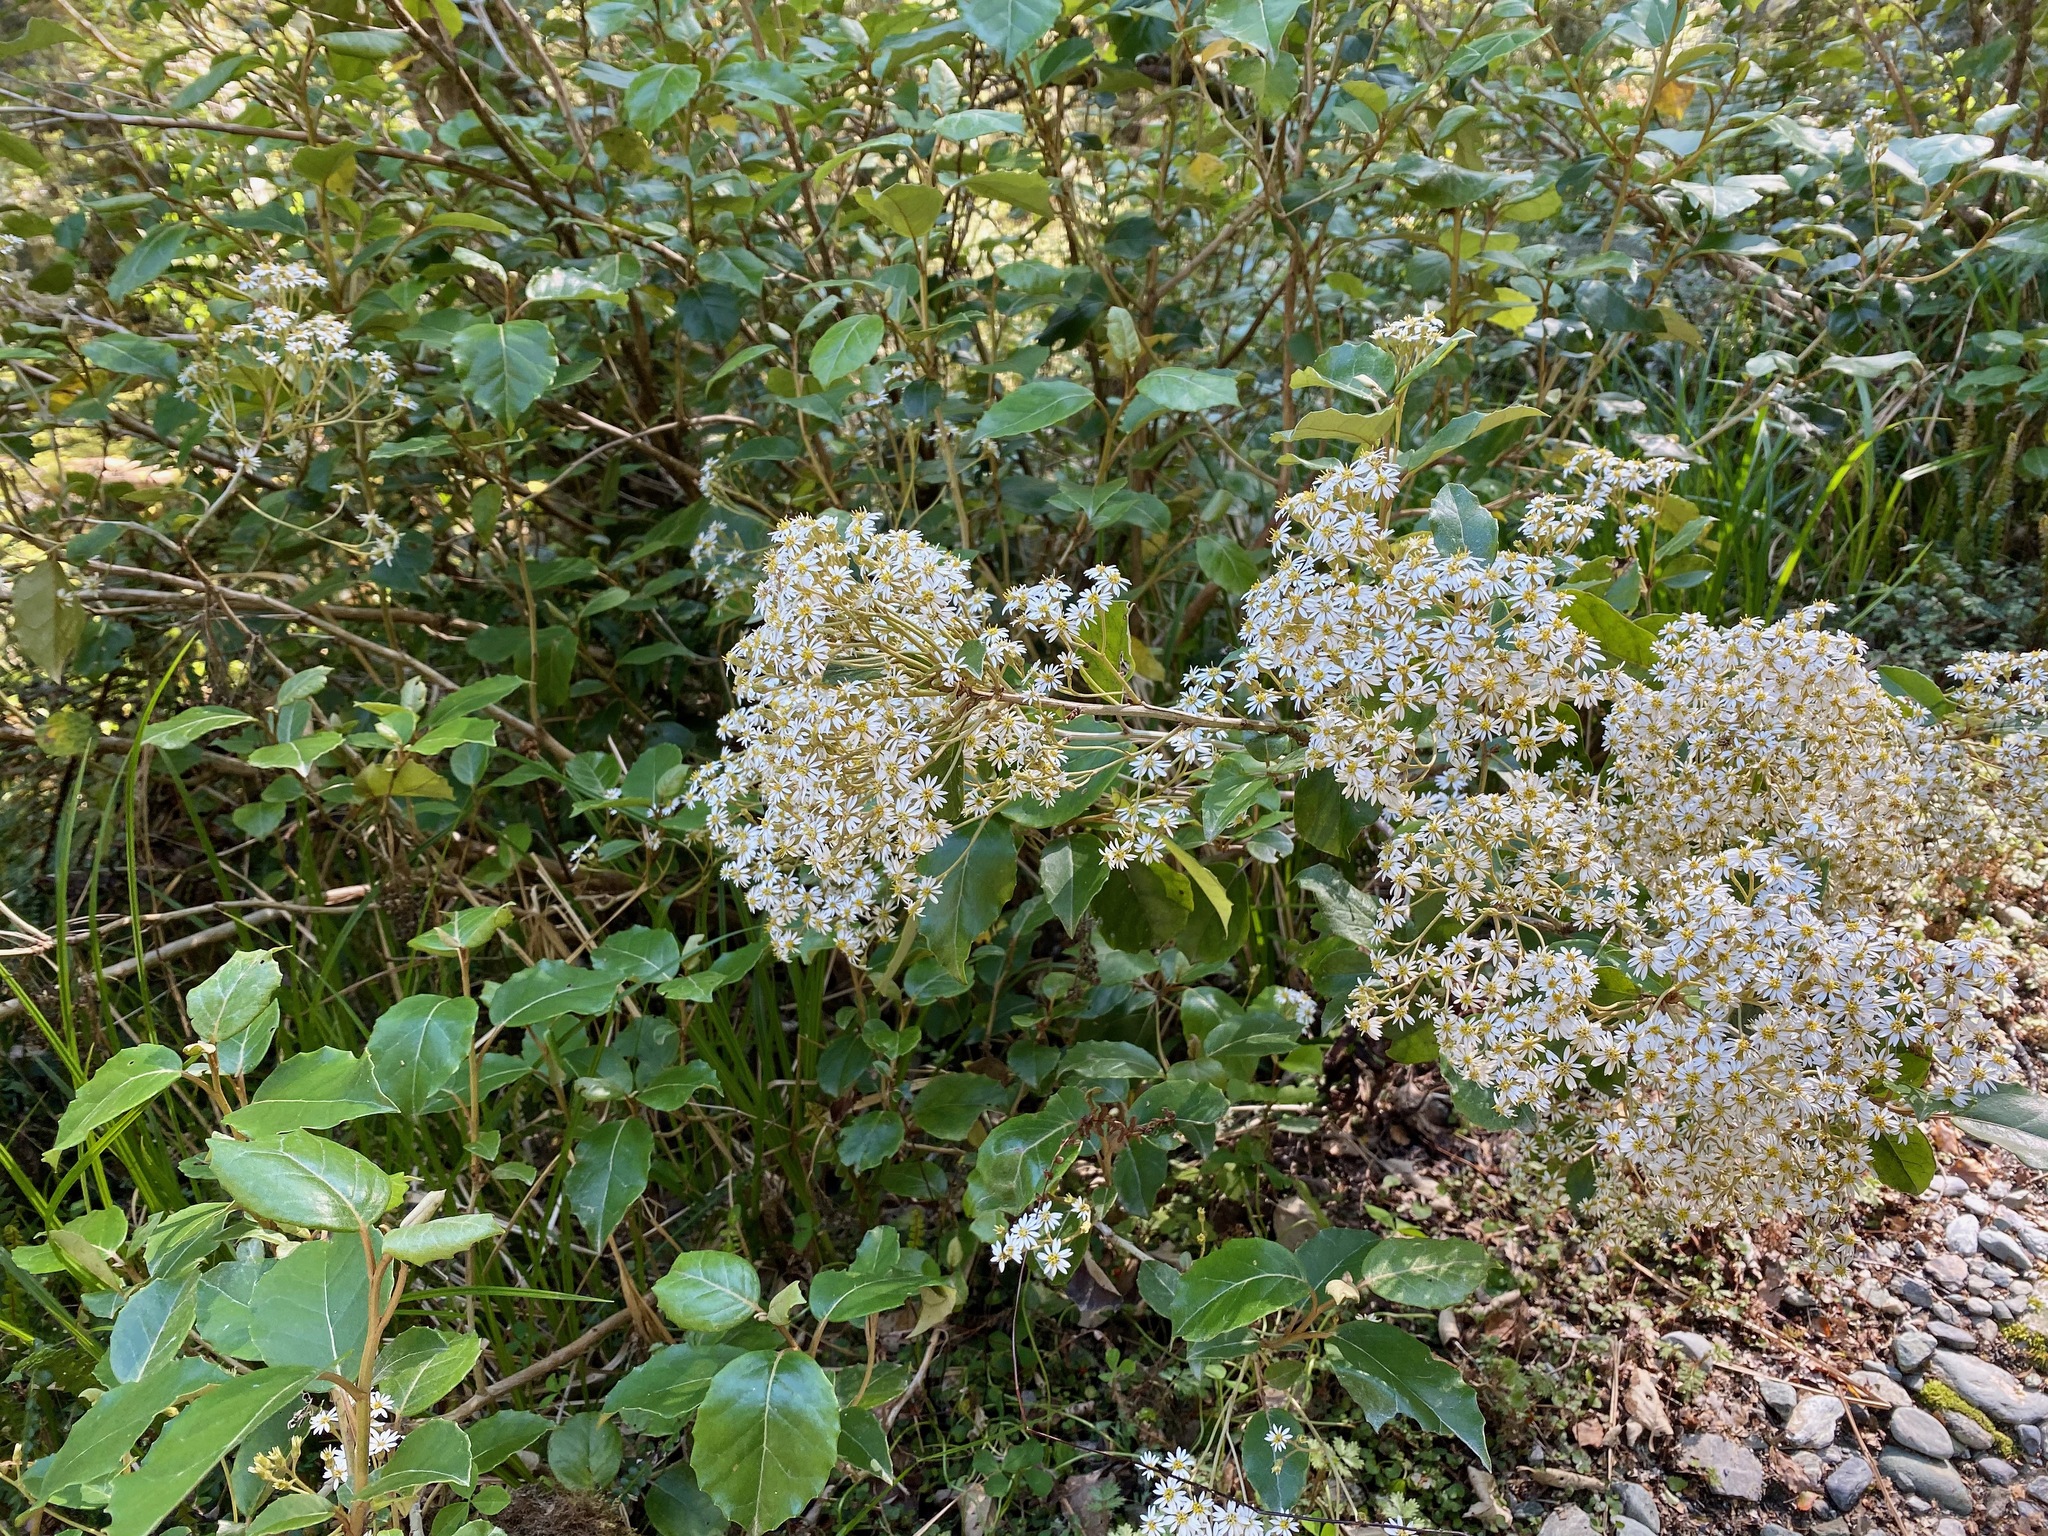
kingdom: Plantae
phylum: Tracheophyta
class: Magnoliopsida
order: Asterales
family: Asteraceae
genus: Olearia
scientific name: Olearia arborescens
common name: Glossy tree daisy
